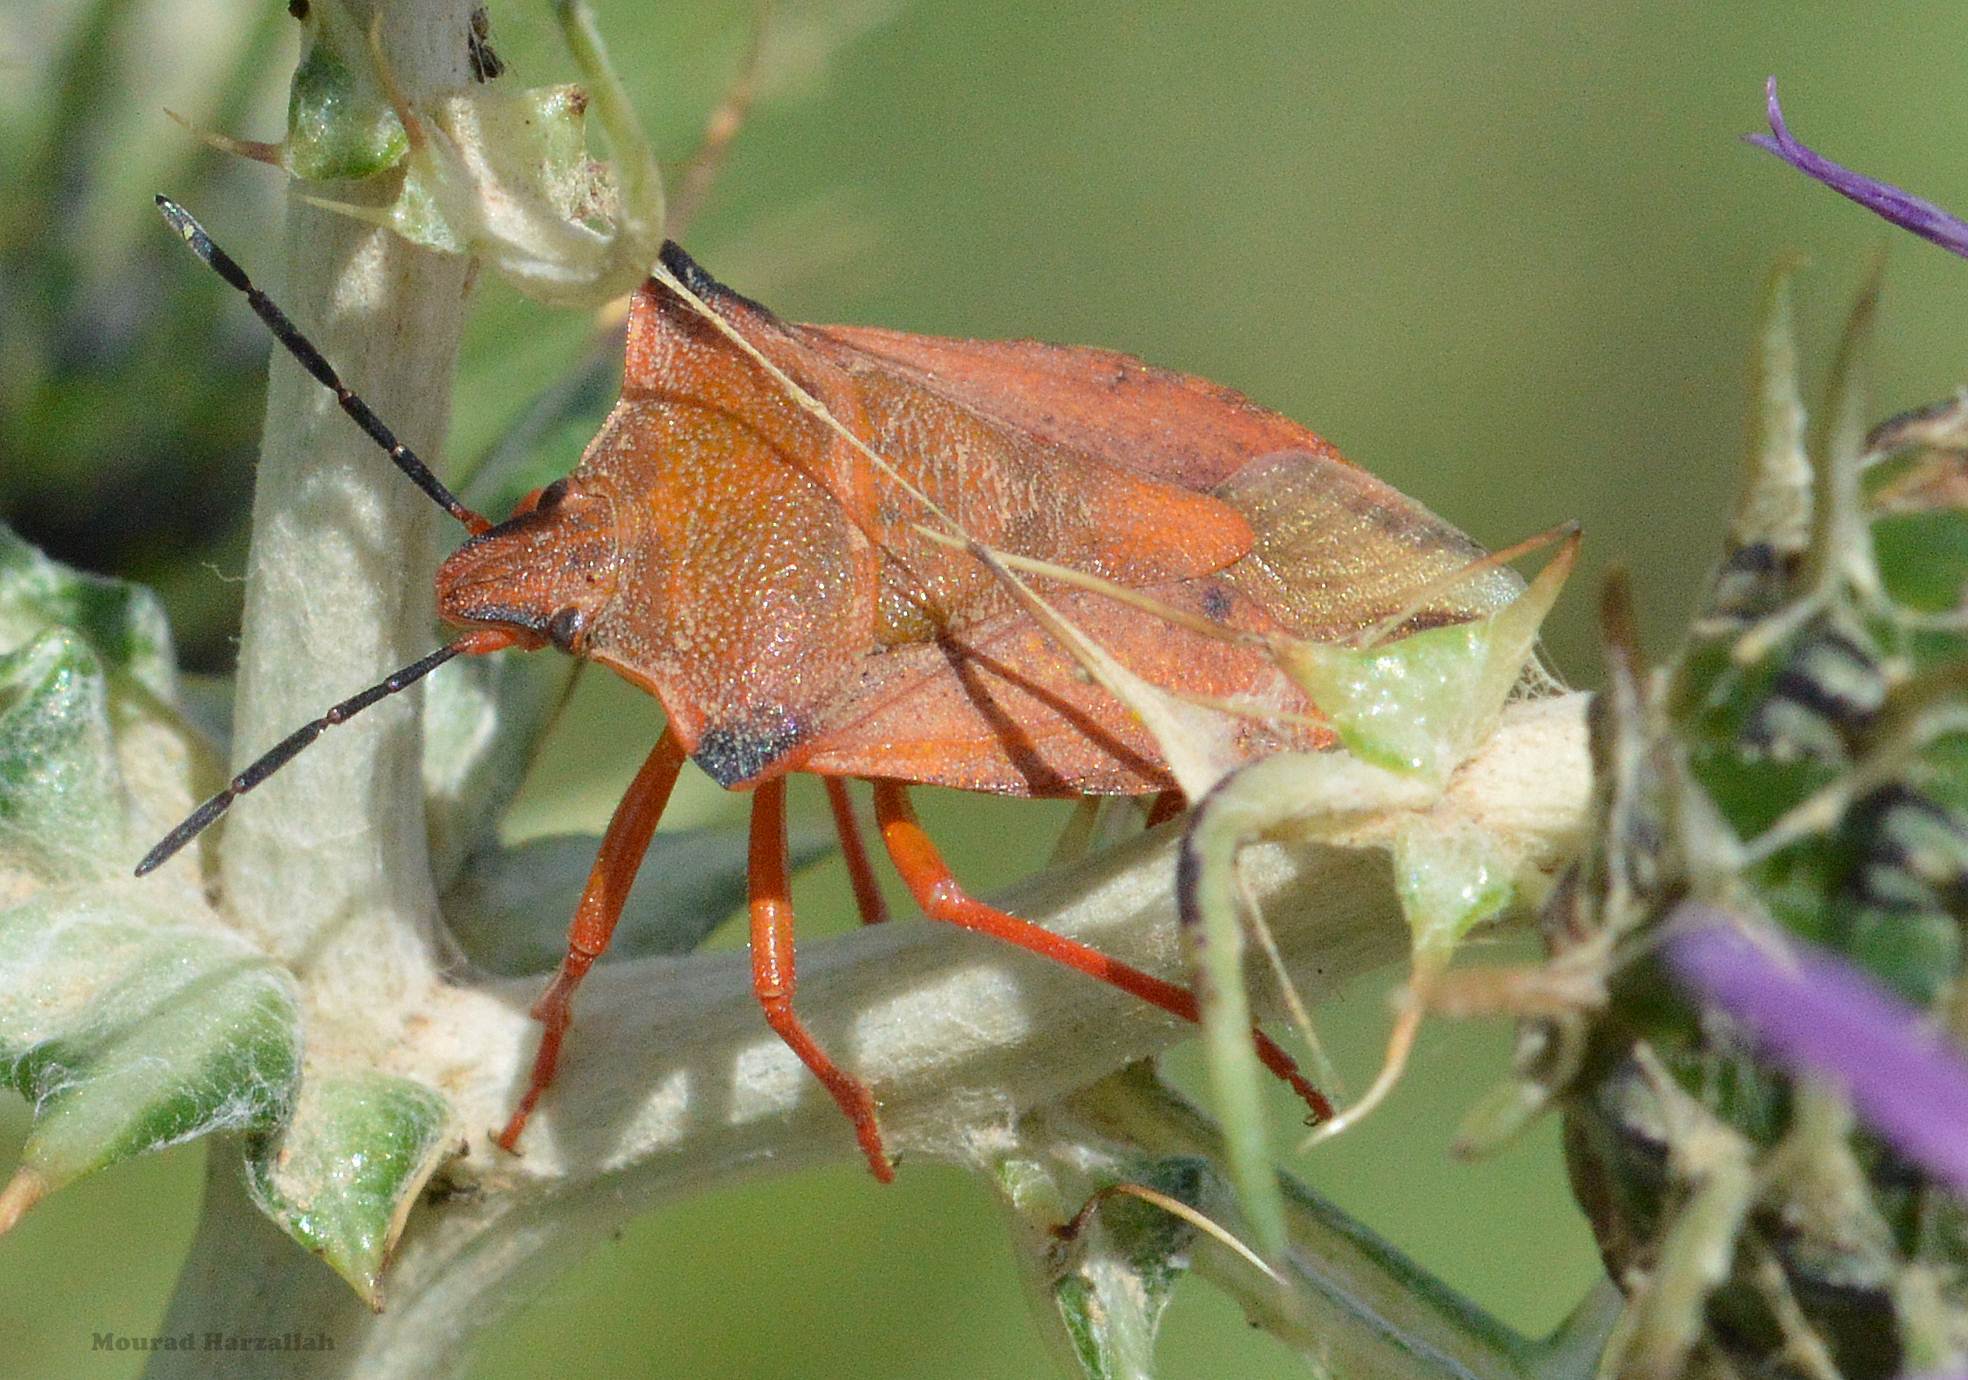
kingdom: Animalia
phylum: Arthropoda
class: Insecta
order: Hemiptera
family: Pentatomidae
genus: Carpocoris
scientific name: Carpocoris mediterraneus
